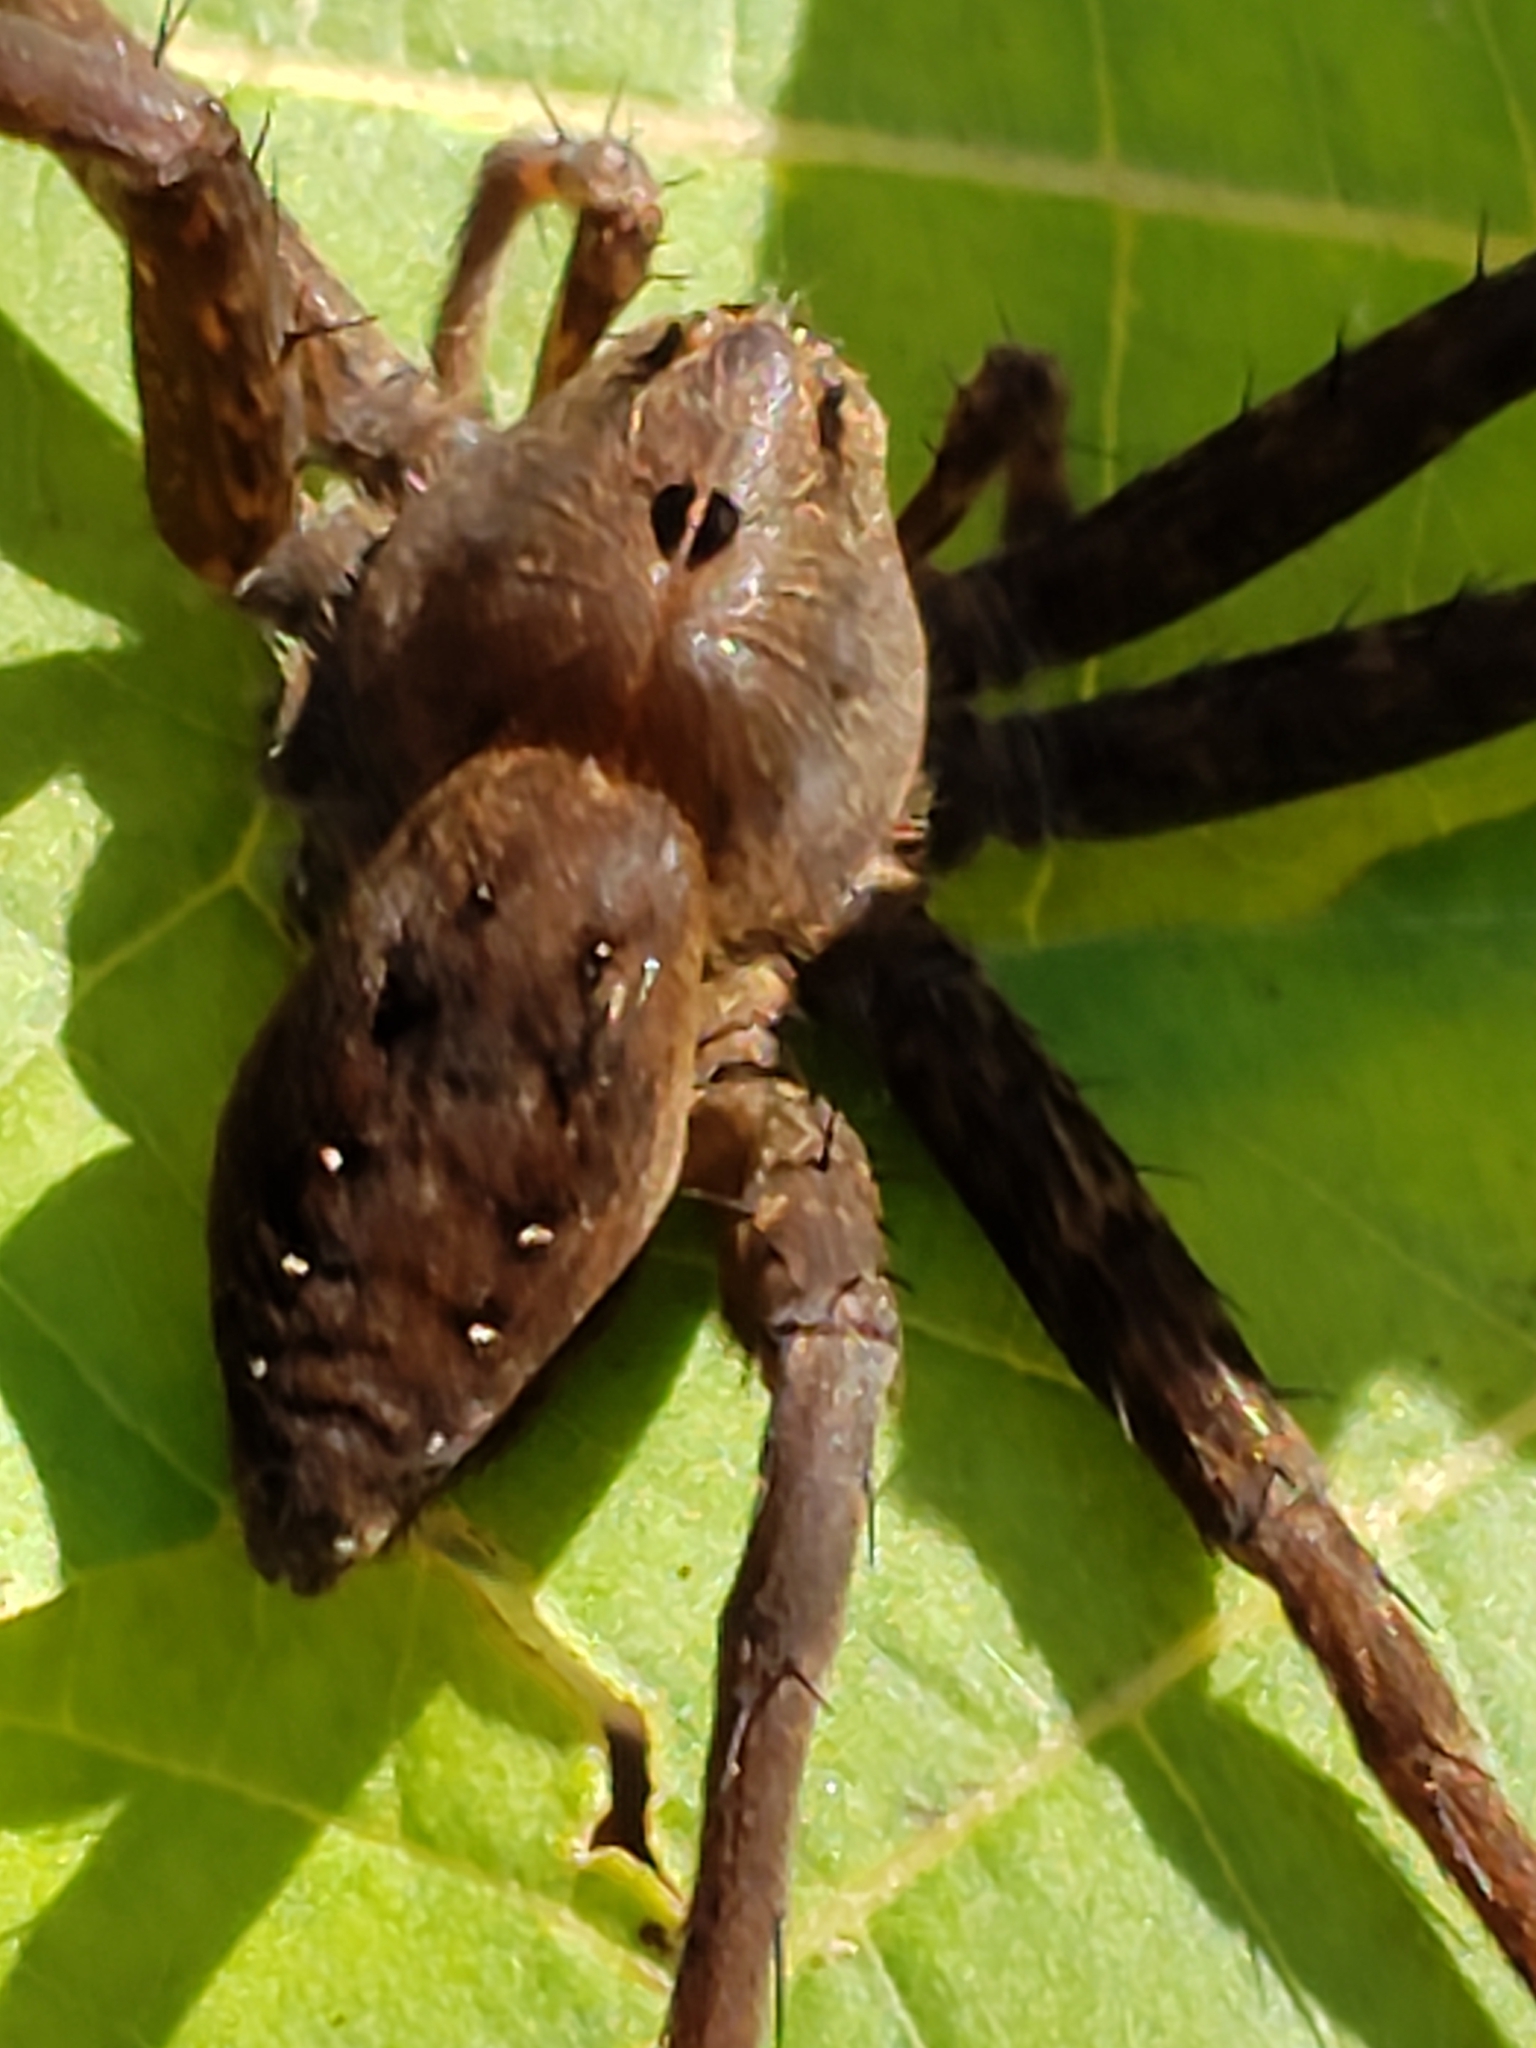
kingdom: Animalia
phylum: Arthropoda
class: Arachnida
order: Araneae
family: Pisauridae
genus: Dolomedes
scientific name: Dolomedes vittatus
